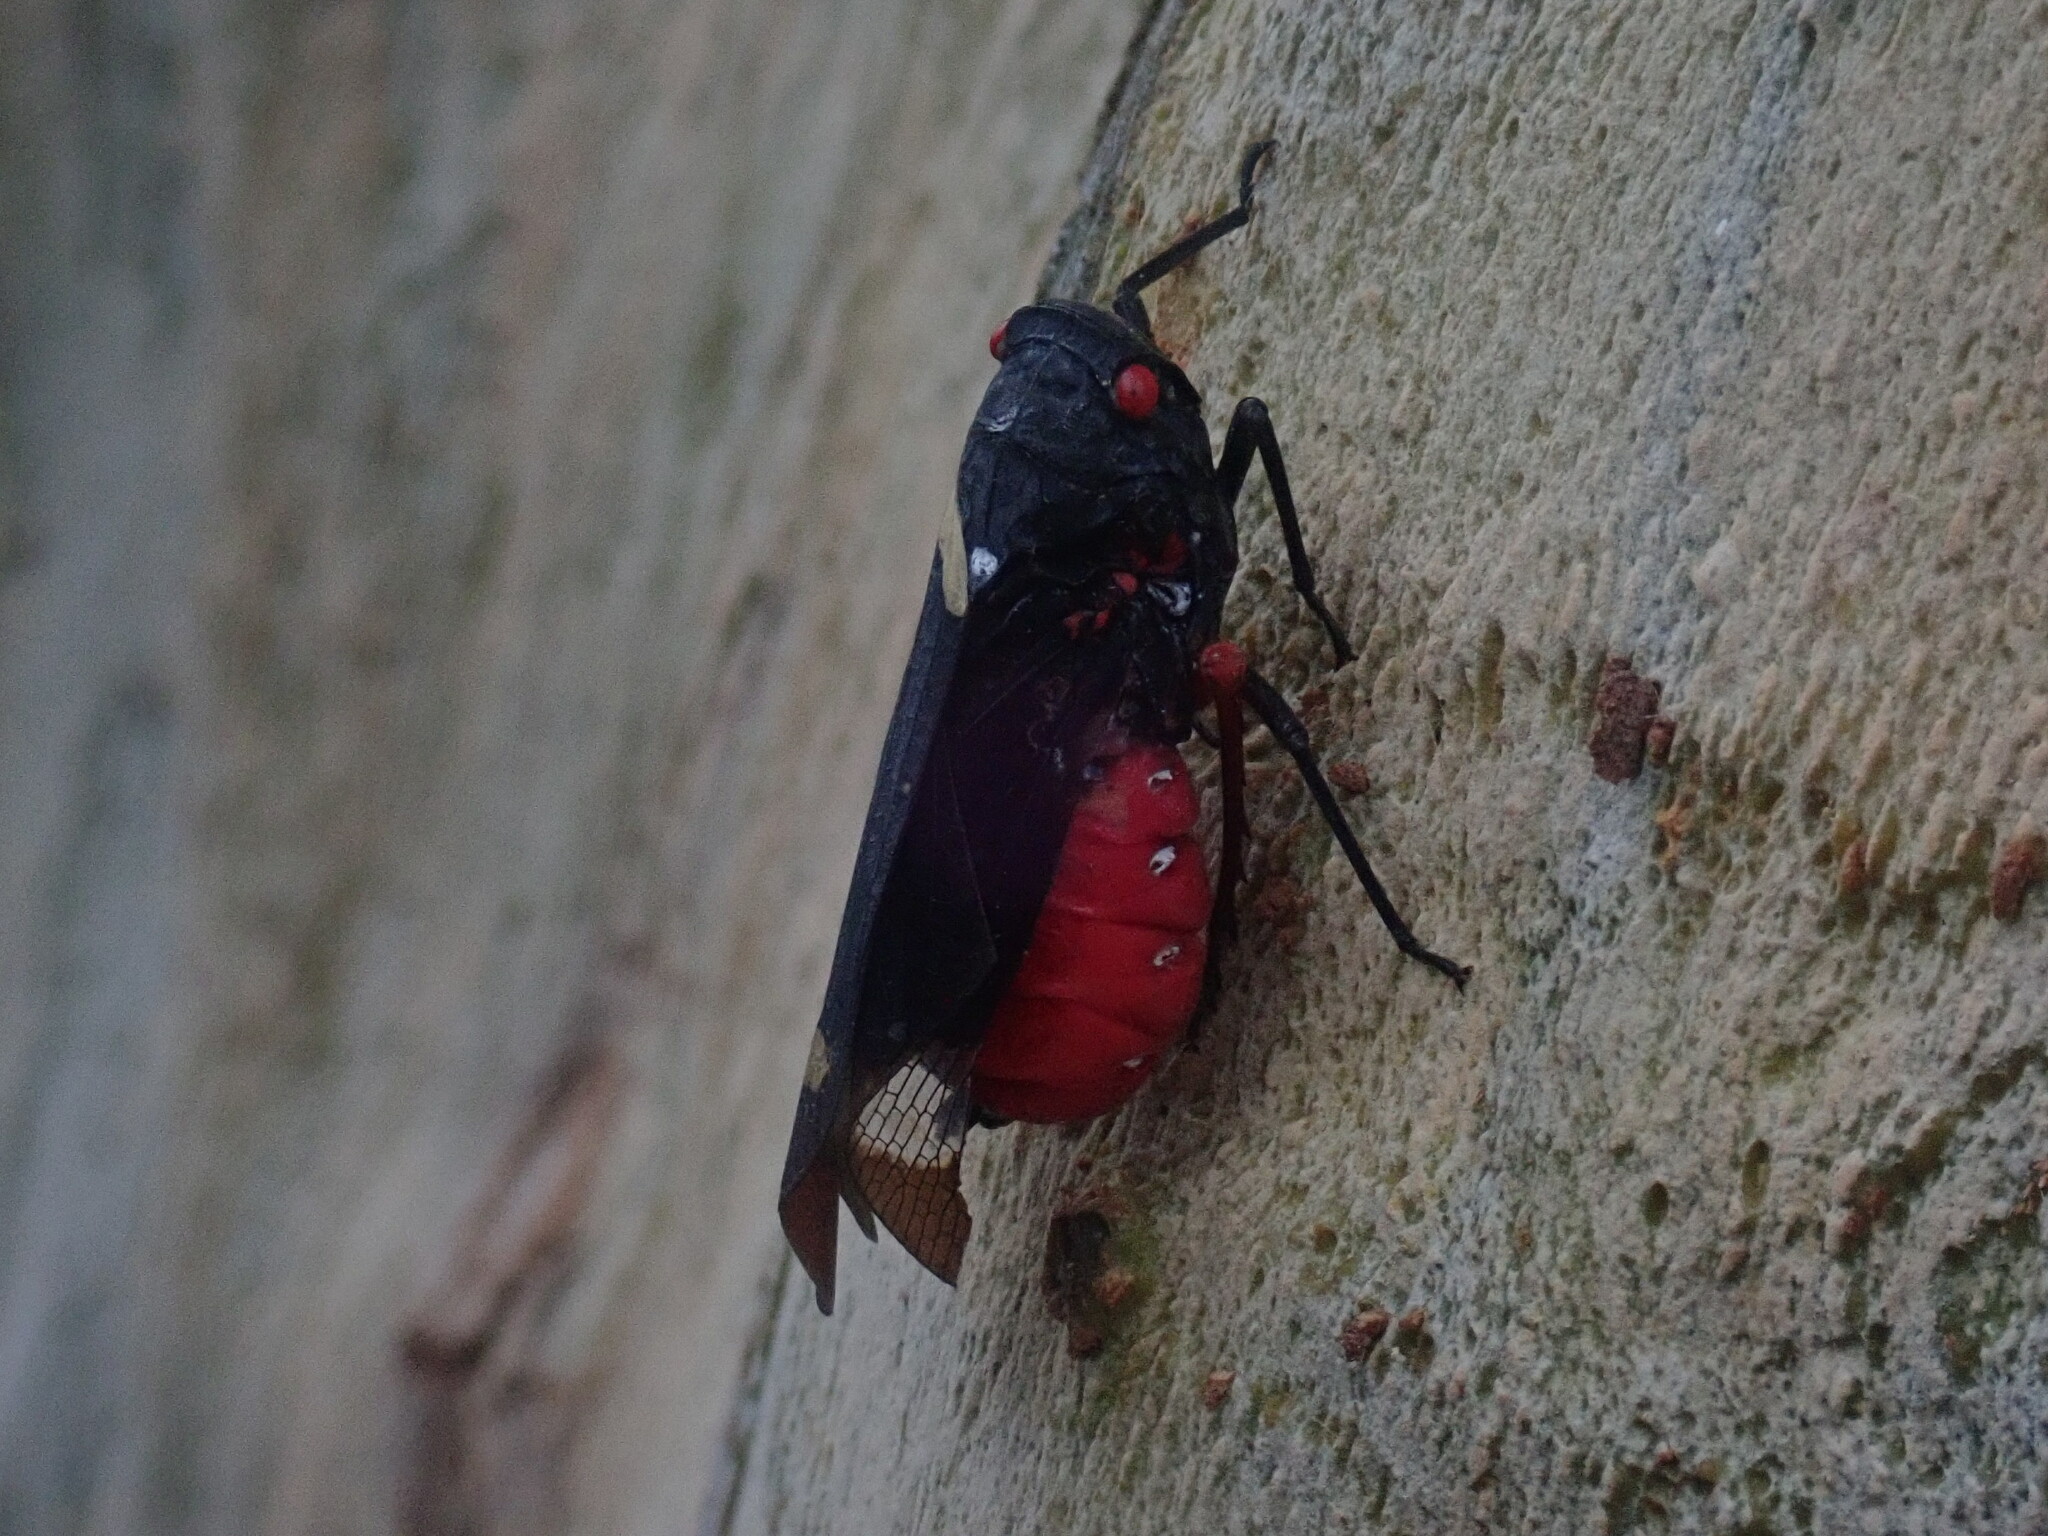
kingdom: Animalia
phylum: Arthropoda
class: Insecta
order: Hemiptera
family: Fulgoridae
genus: Zeunasa
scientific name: Zeunasa fastuosa
